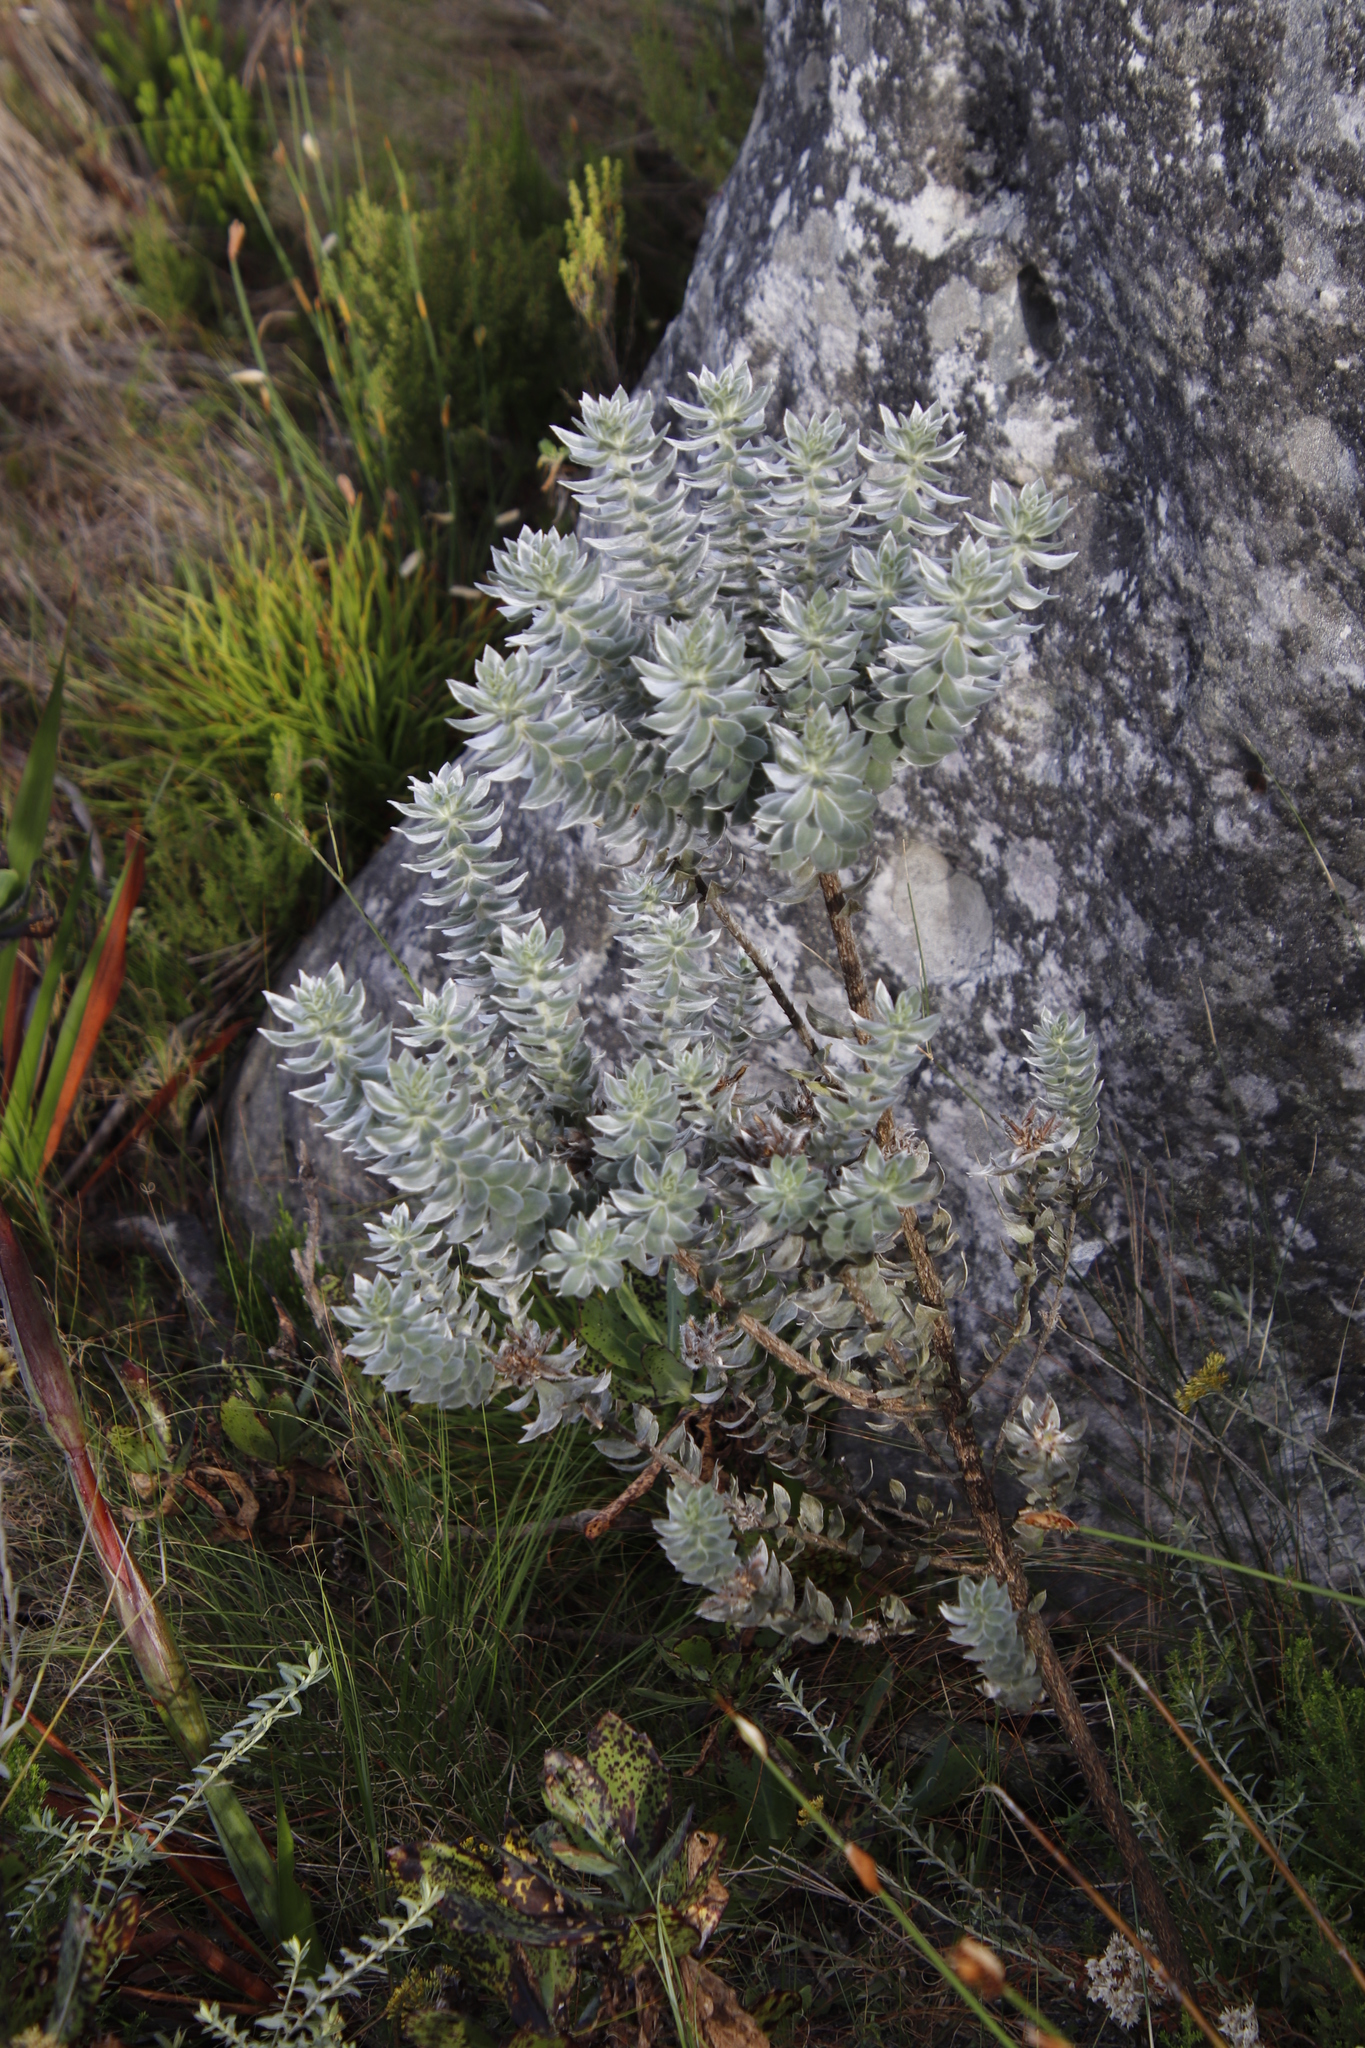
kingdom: Plantae
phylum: Tracheophyta
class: Magnoliopsida
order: Fabales
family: Fabaceae
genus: Xiphotheca
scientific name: Xiphotheca fruticosa
